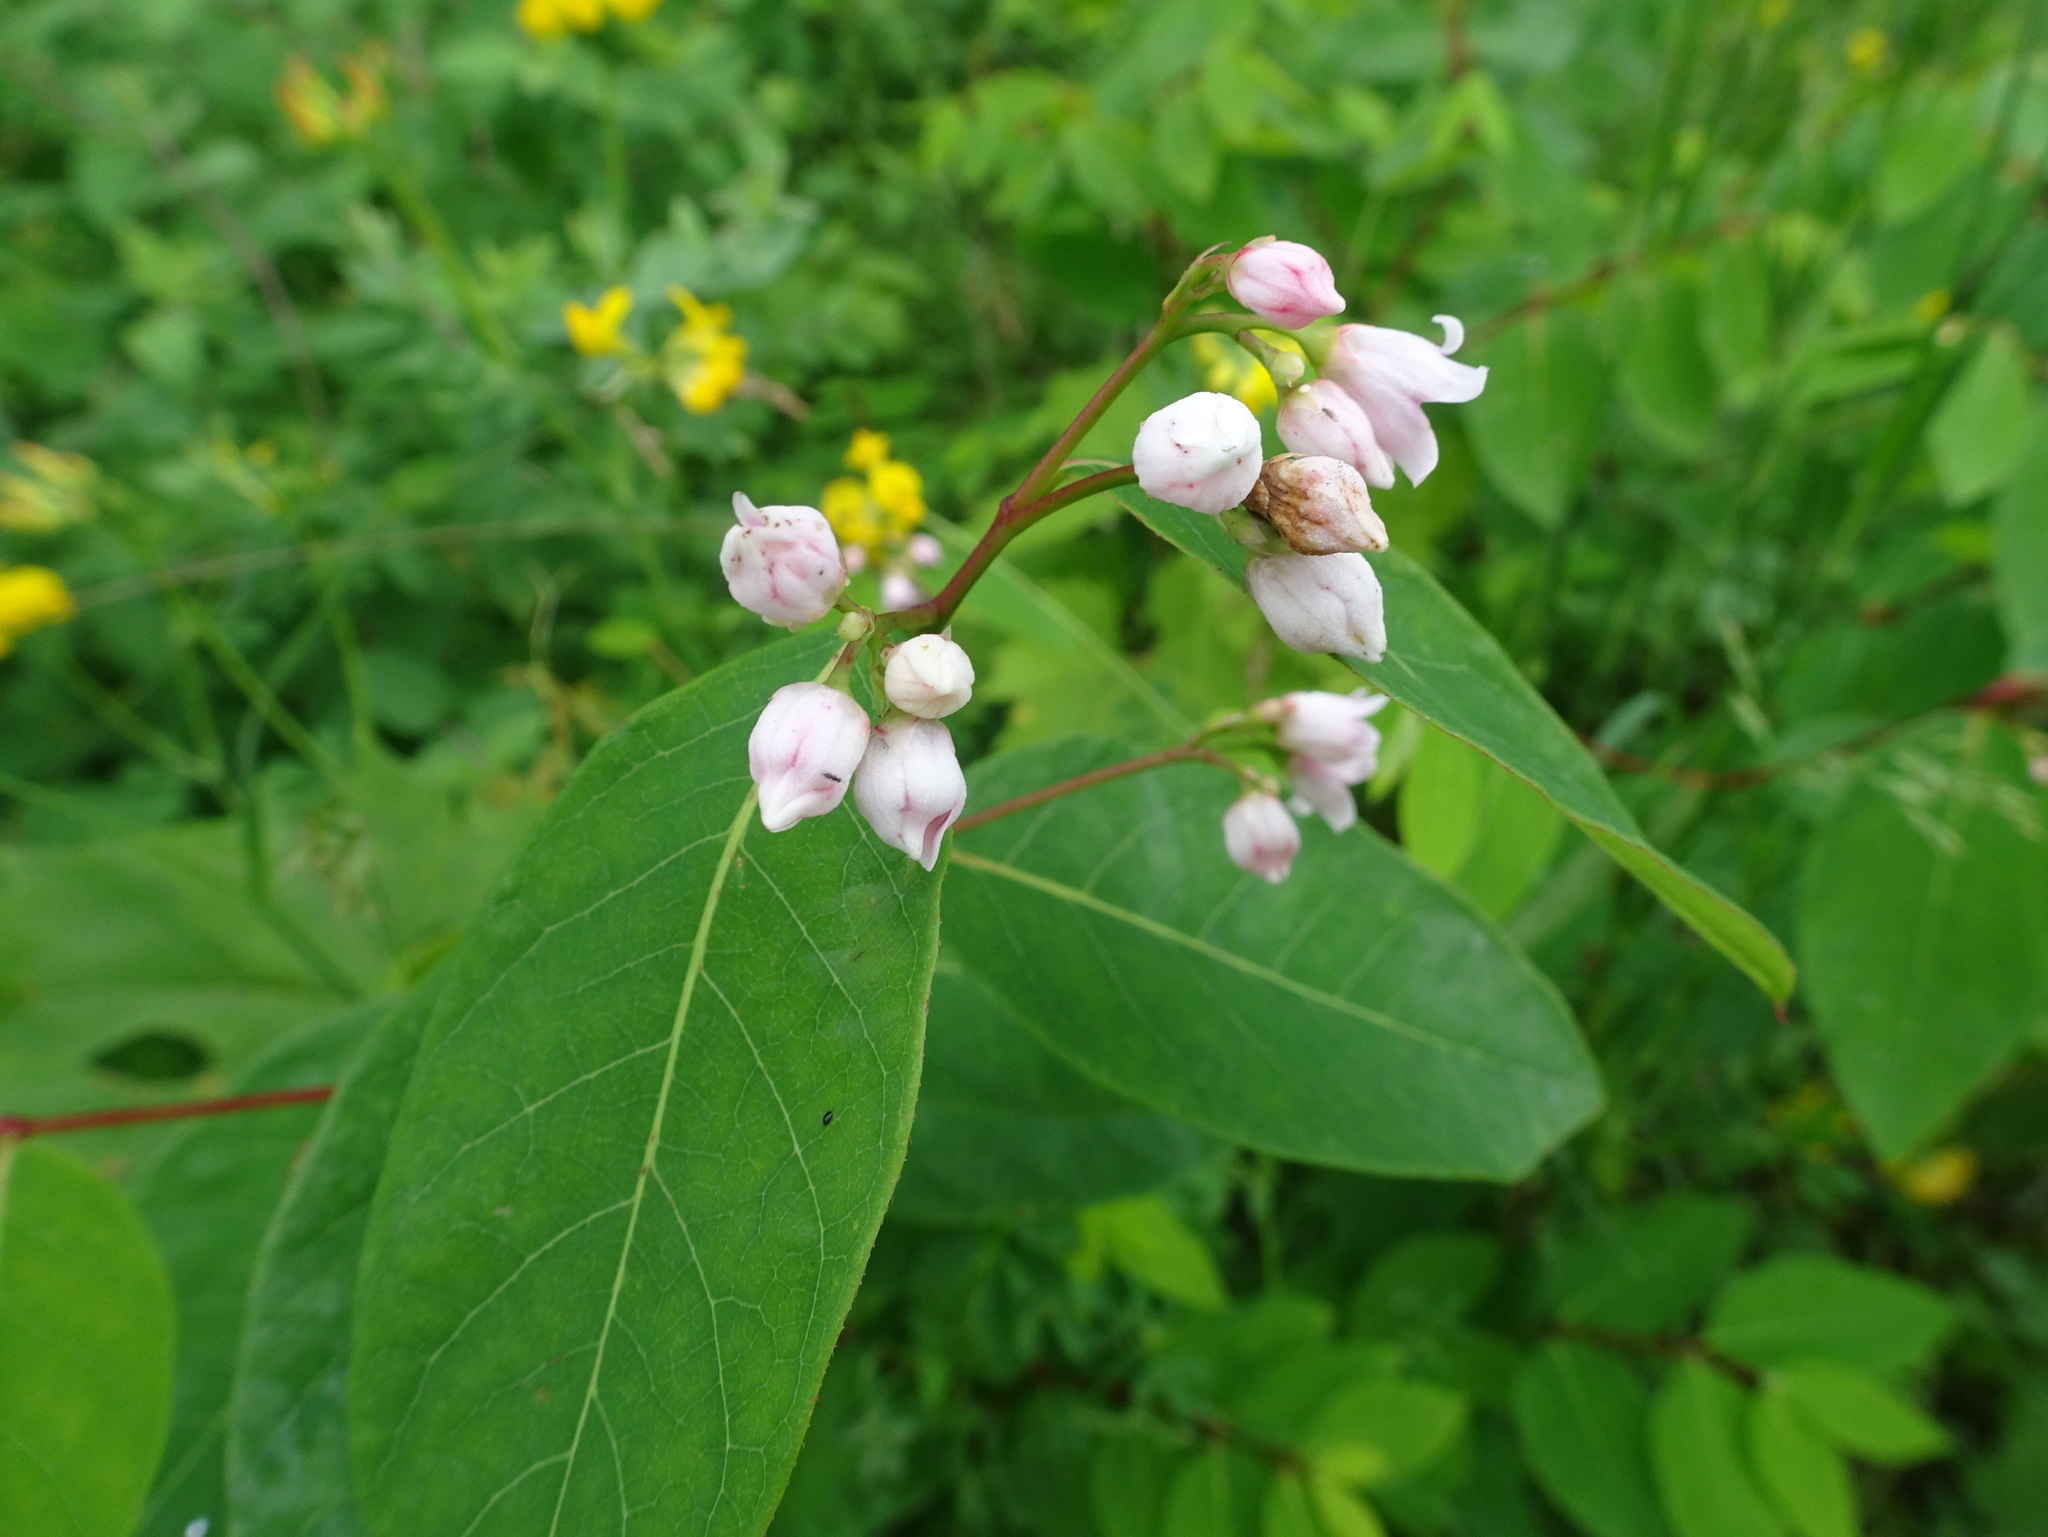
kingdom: Plantae
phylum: Tracheophyta
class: Magnoliopsida
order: Gentianales
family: Apocynaceae
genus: Apocynum
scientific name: Apocynum androsaemifolium
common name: Spreading dogbane
